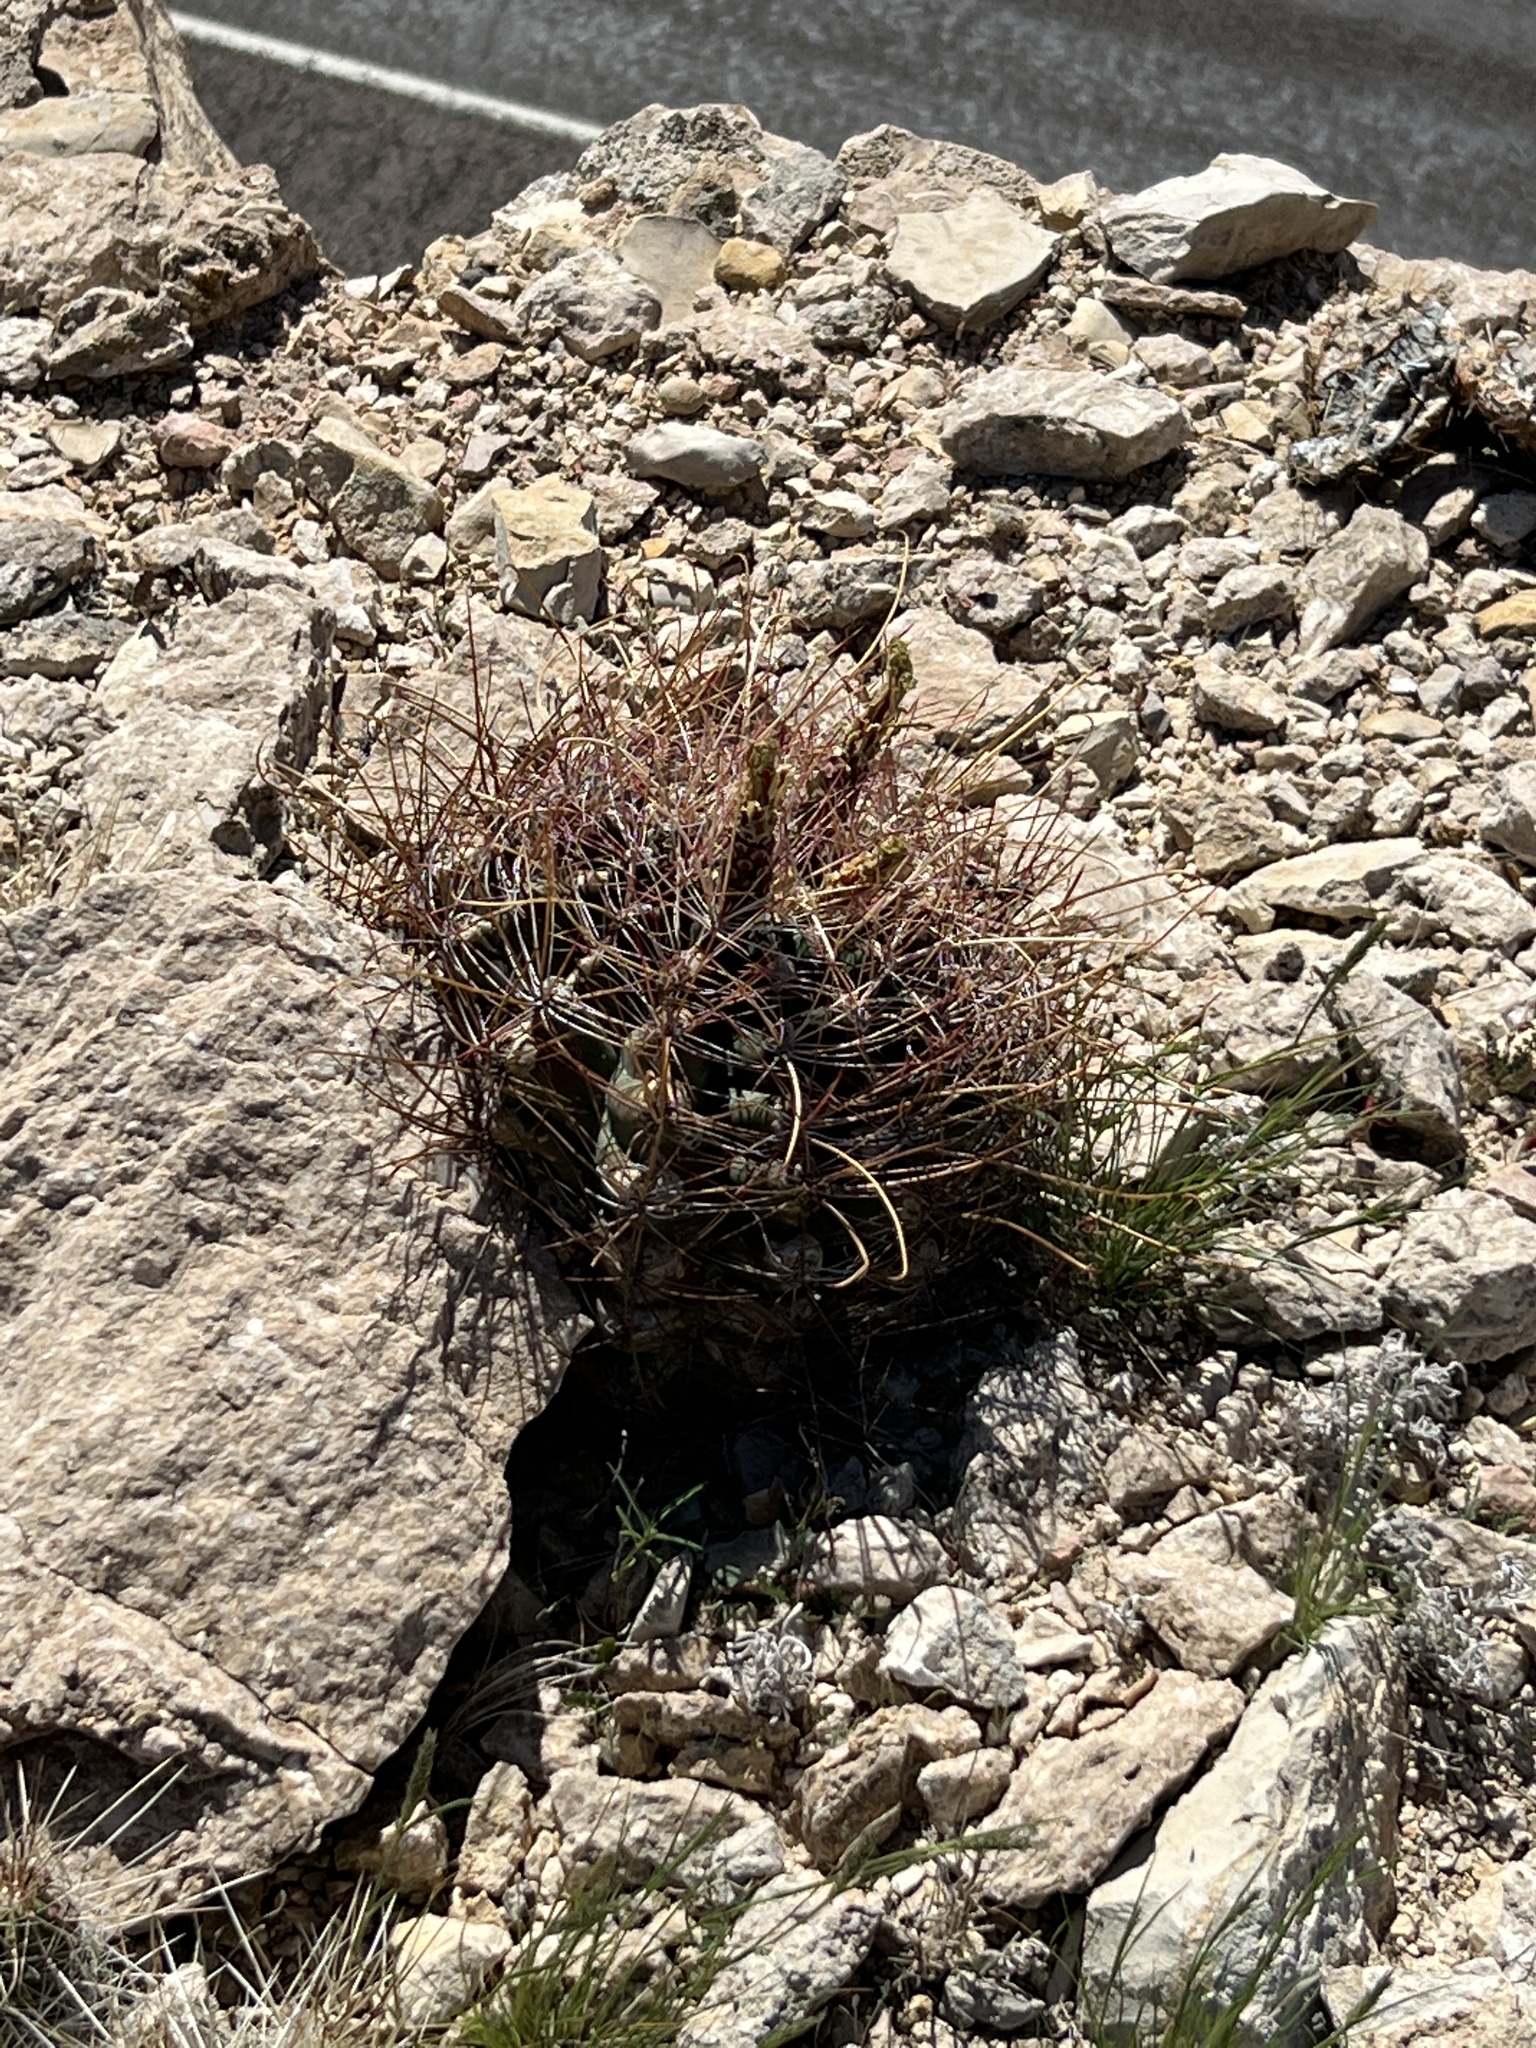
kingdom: Plantae
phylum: Tracheophyta
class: Magnoliopsida
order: Caryophyllales
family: Cactaceae
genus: Bisnaga
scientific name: Bisnaga hamatacantha
